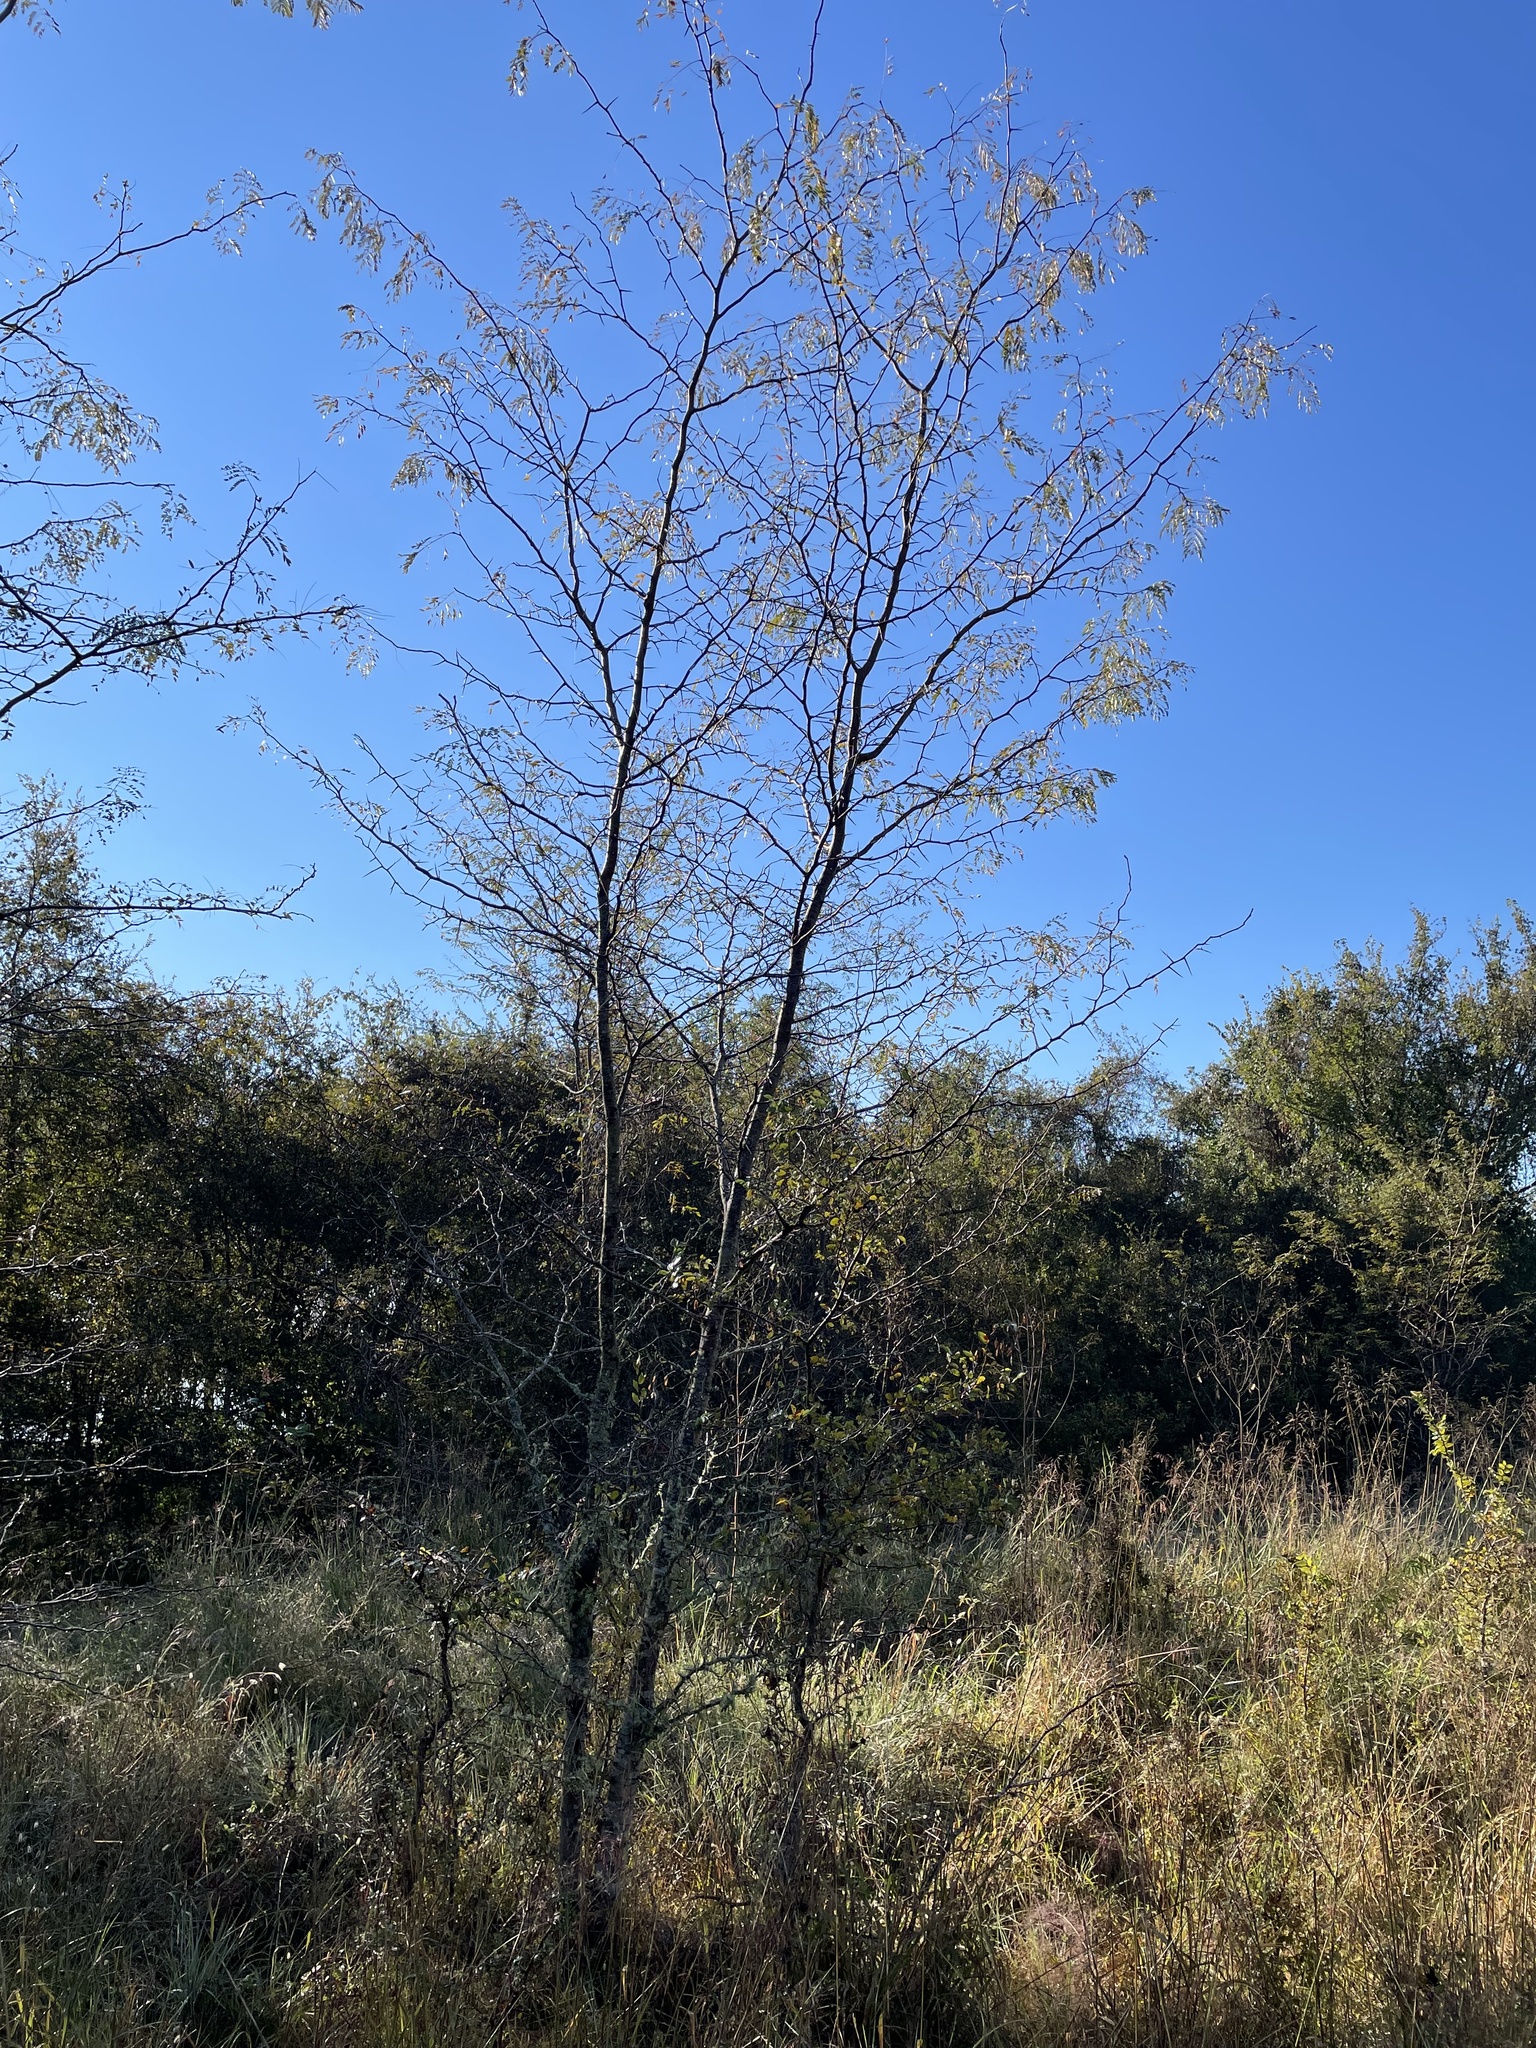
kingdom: Plantae
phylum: Tracheophyta
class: Magnoliopsida
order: Fabales
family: Fabaceae
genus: Gleditsia
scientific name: Gleditsia triacanthos
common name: Common honeylocust
